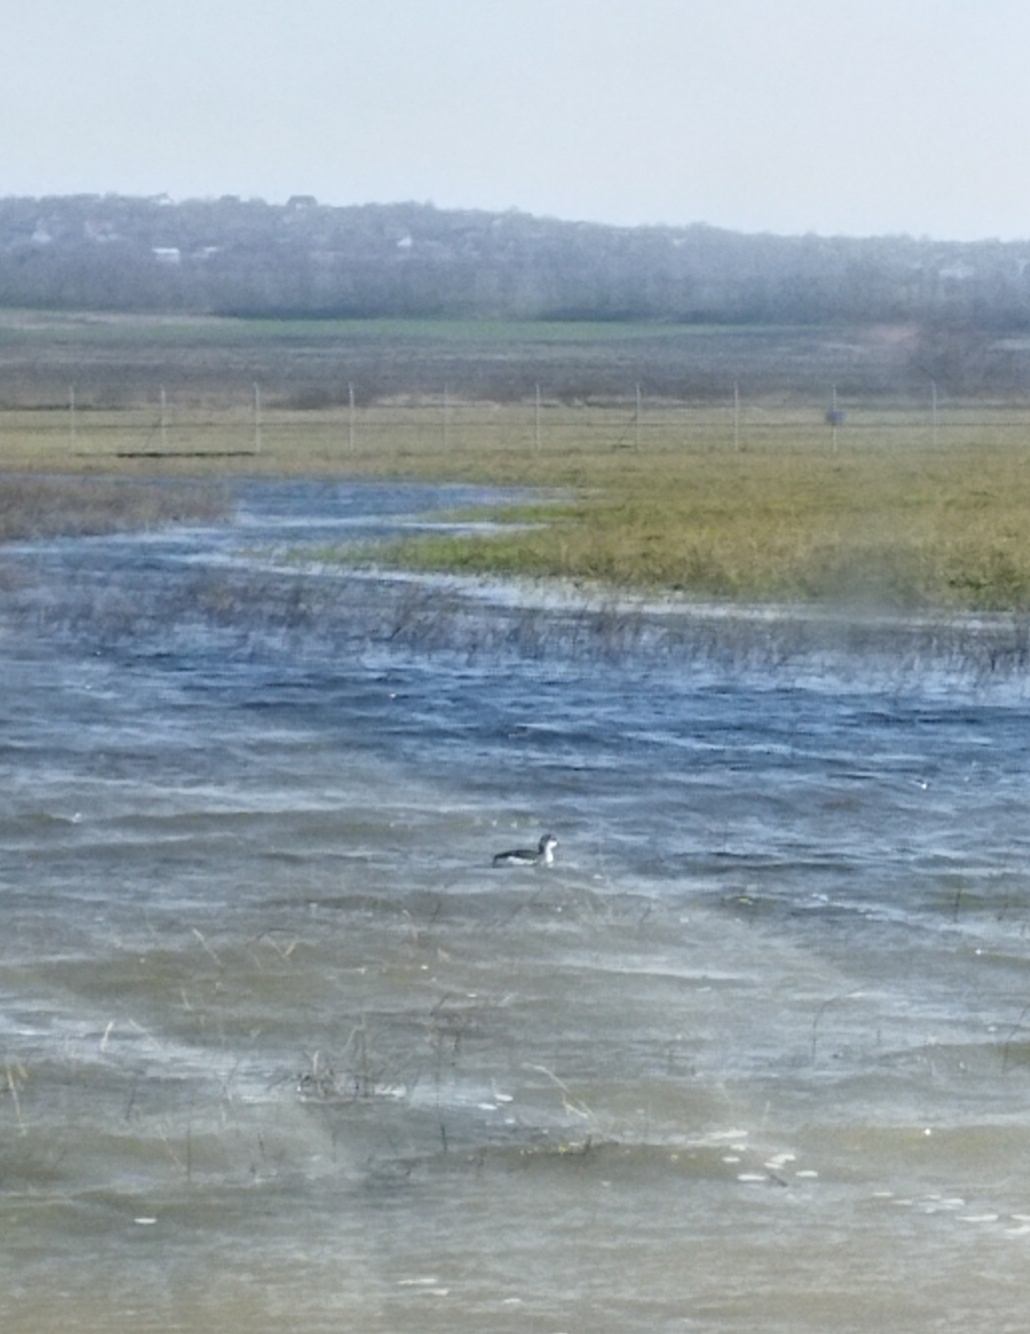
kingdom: Animalia
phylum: Chordata
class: Aves
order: Podicipediformes
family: Podicipedidae
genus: Podiceps
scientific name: Podiceps nigricollis
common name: Black-necked grebe
